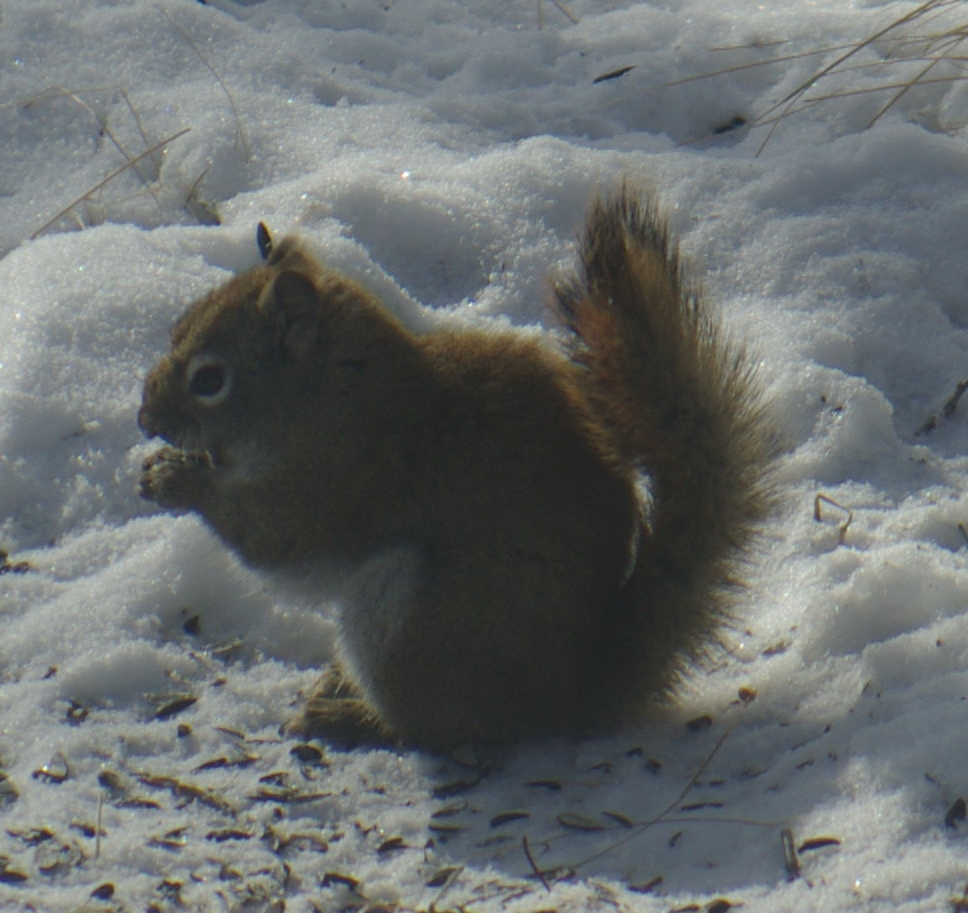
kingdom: Animalia
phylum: Chordata
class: Mammalia
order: Rodentia
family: Sciuridae
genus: Tamiasciurus
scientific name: Tamiasciurus hudsonicus
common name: Red squirrel
